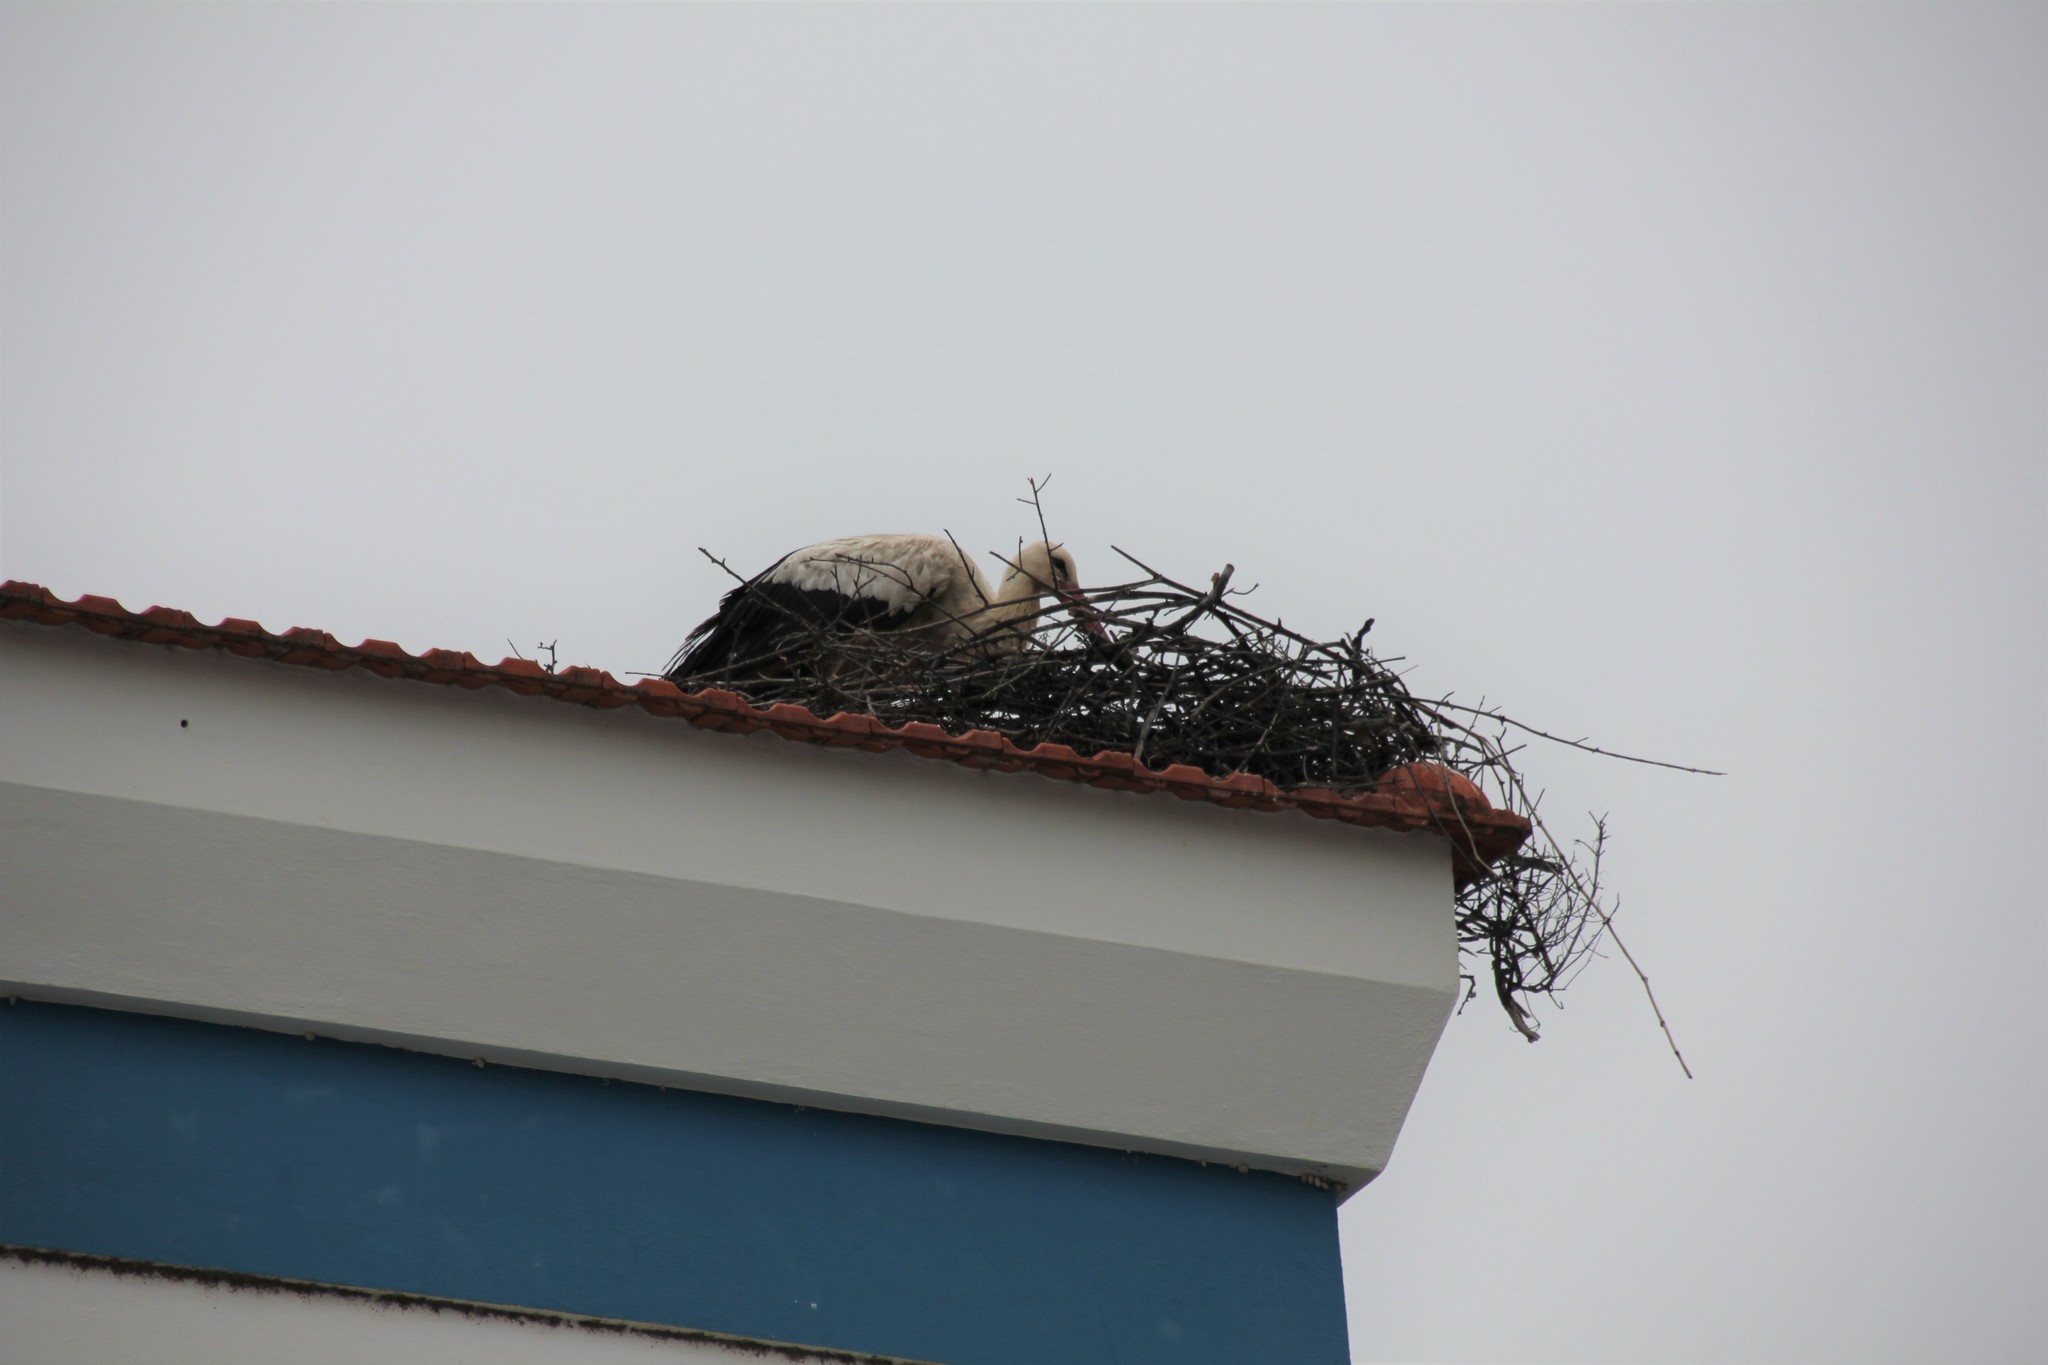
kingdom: Animalia
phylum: Chordata
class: Aves
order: Ciconiiformes
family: Ciconiidae
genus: Ciconia
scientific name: Ciconia ciconia
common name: White stork
